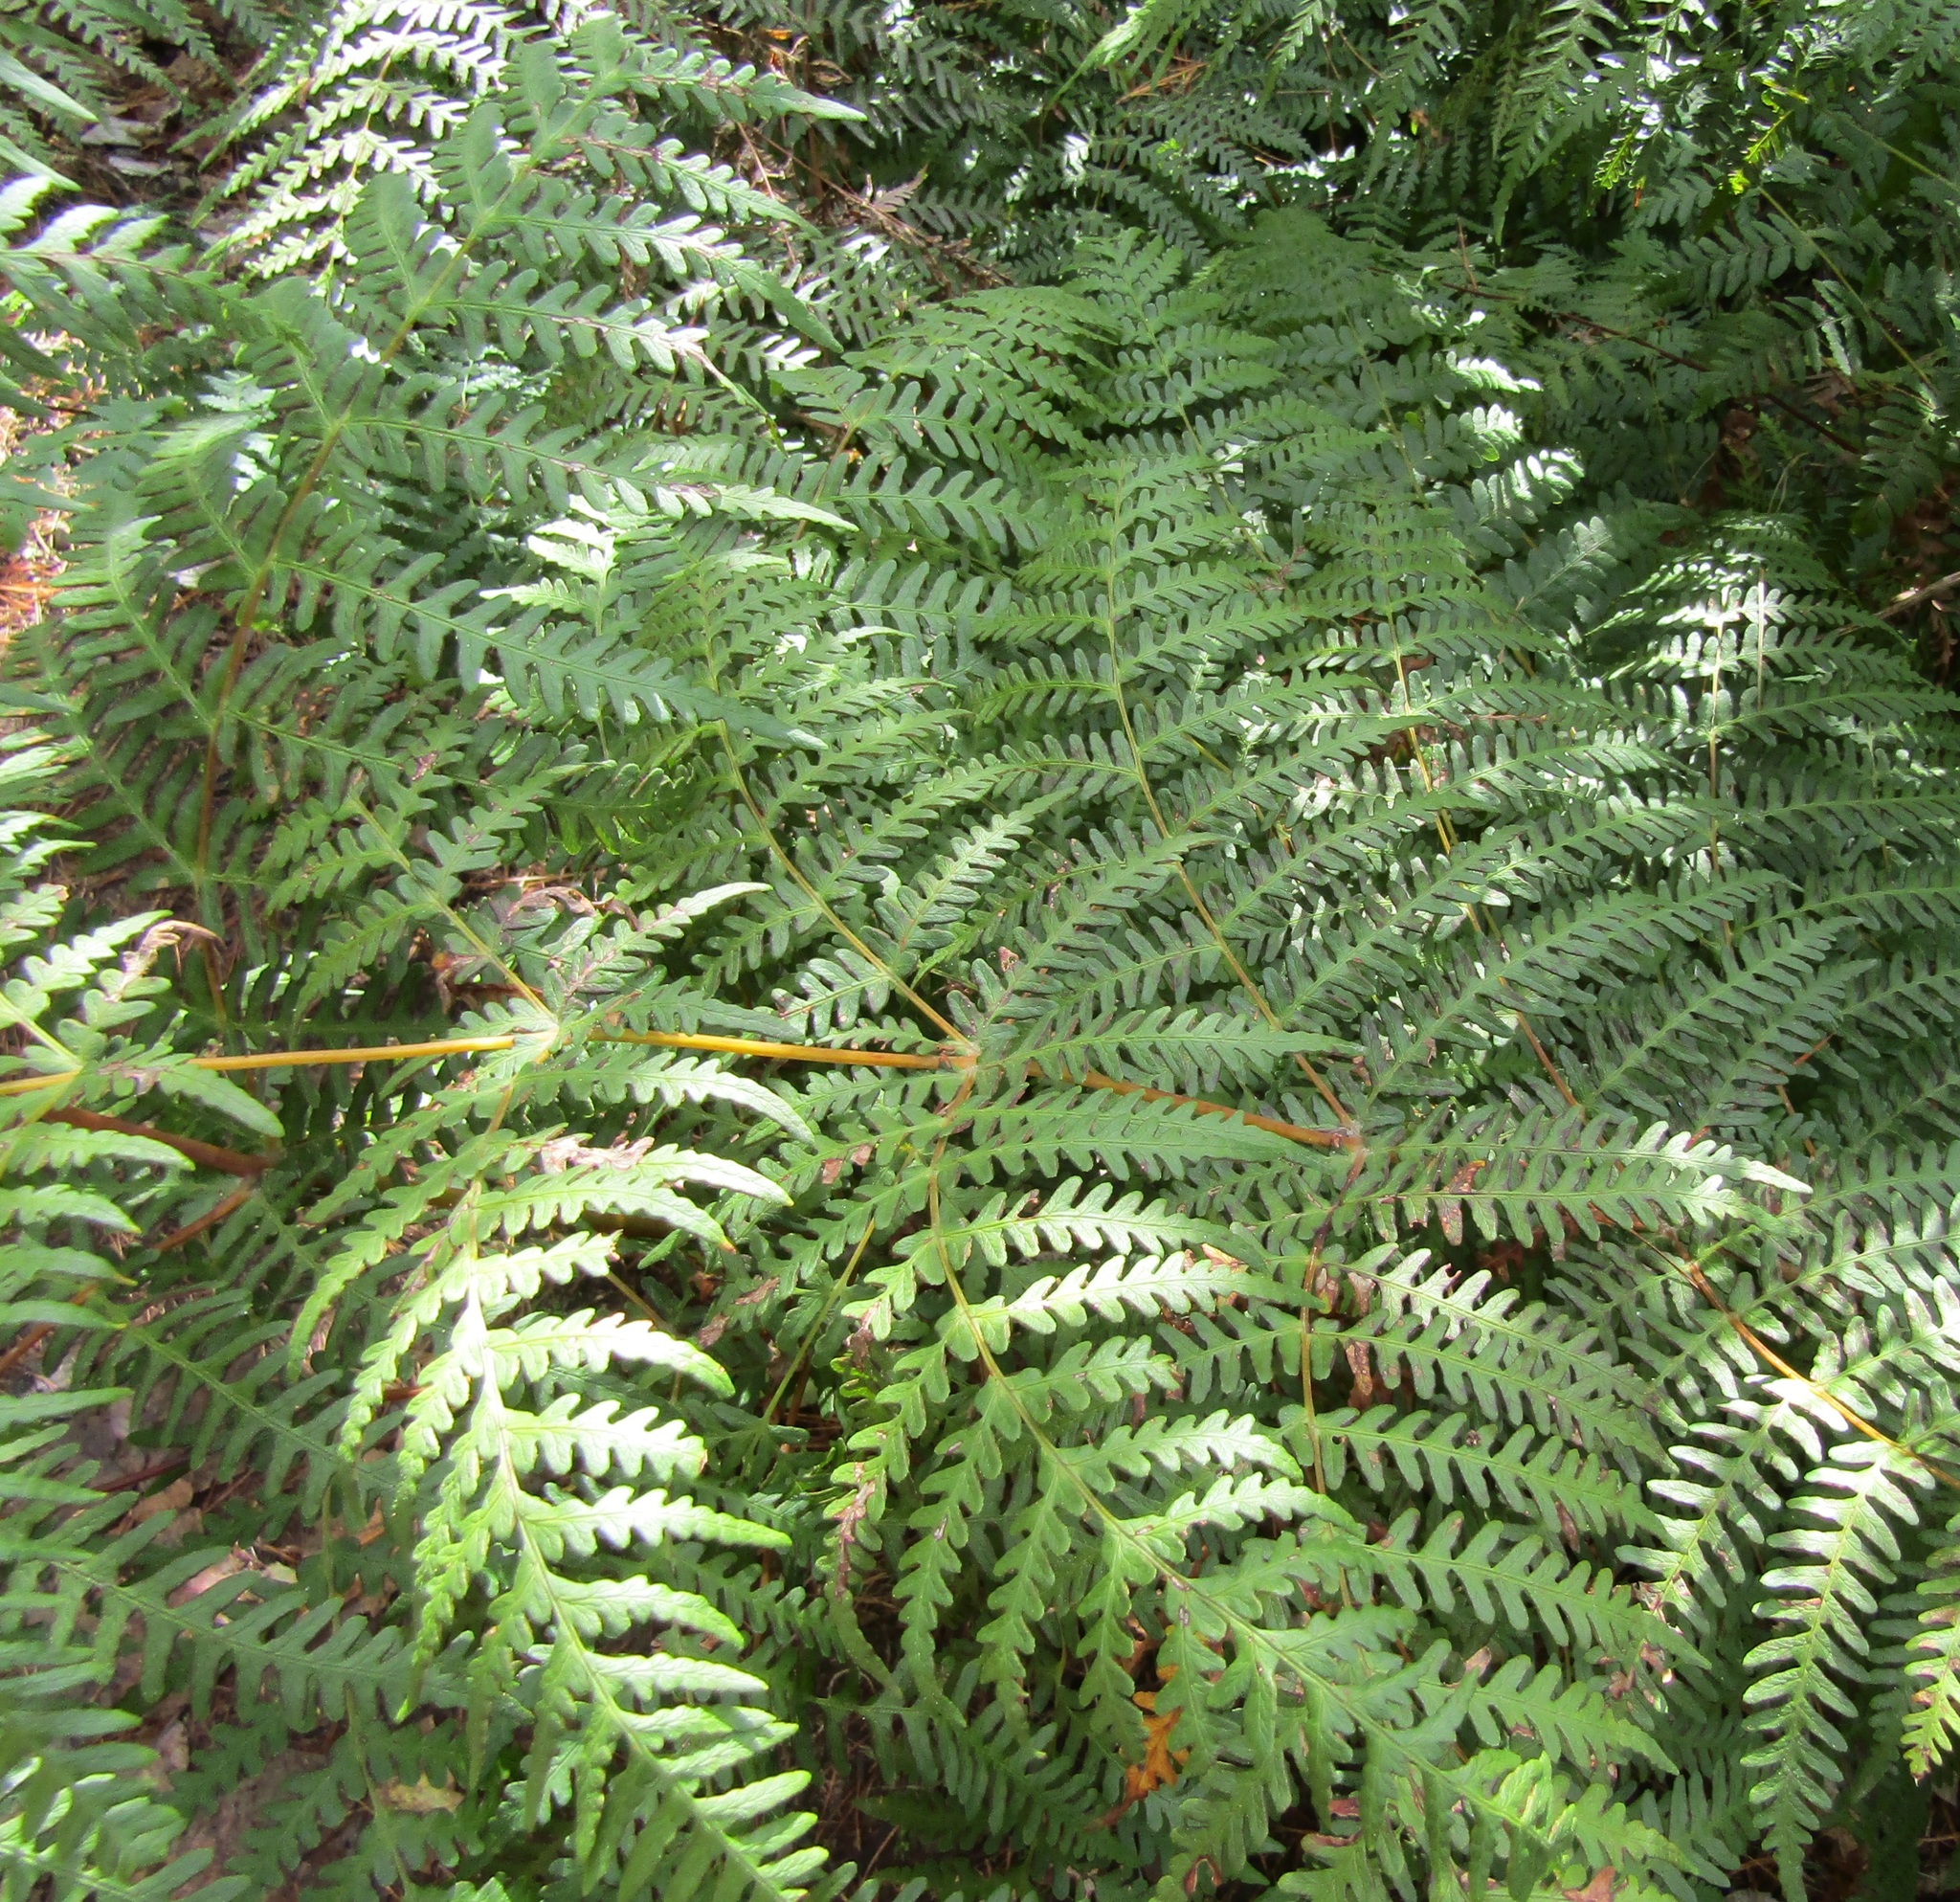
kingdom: Plantae
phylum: Tracheophyta
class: Polypodiopsida
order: Polypodiales
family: Dennstaedtiaceae
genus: Histiopteris
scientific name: Histiopteris incisa
